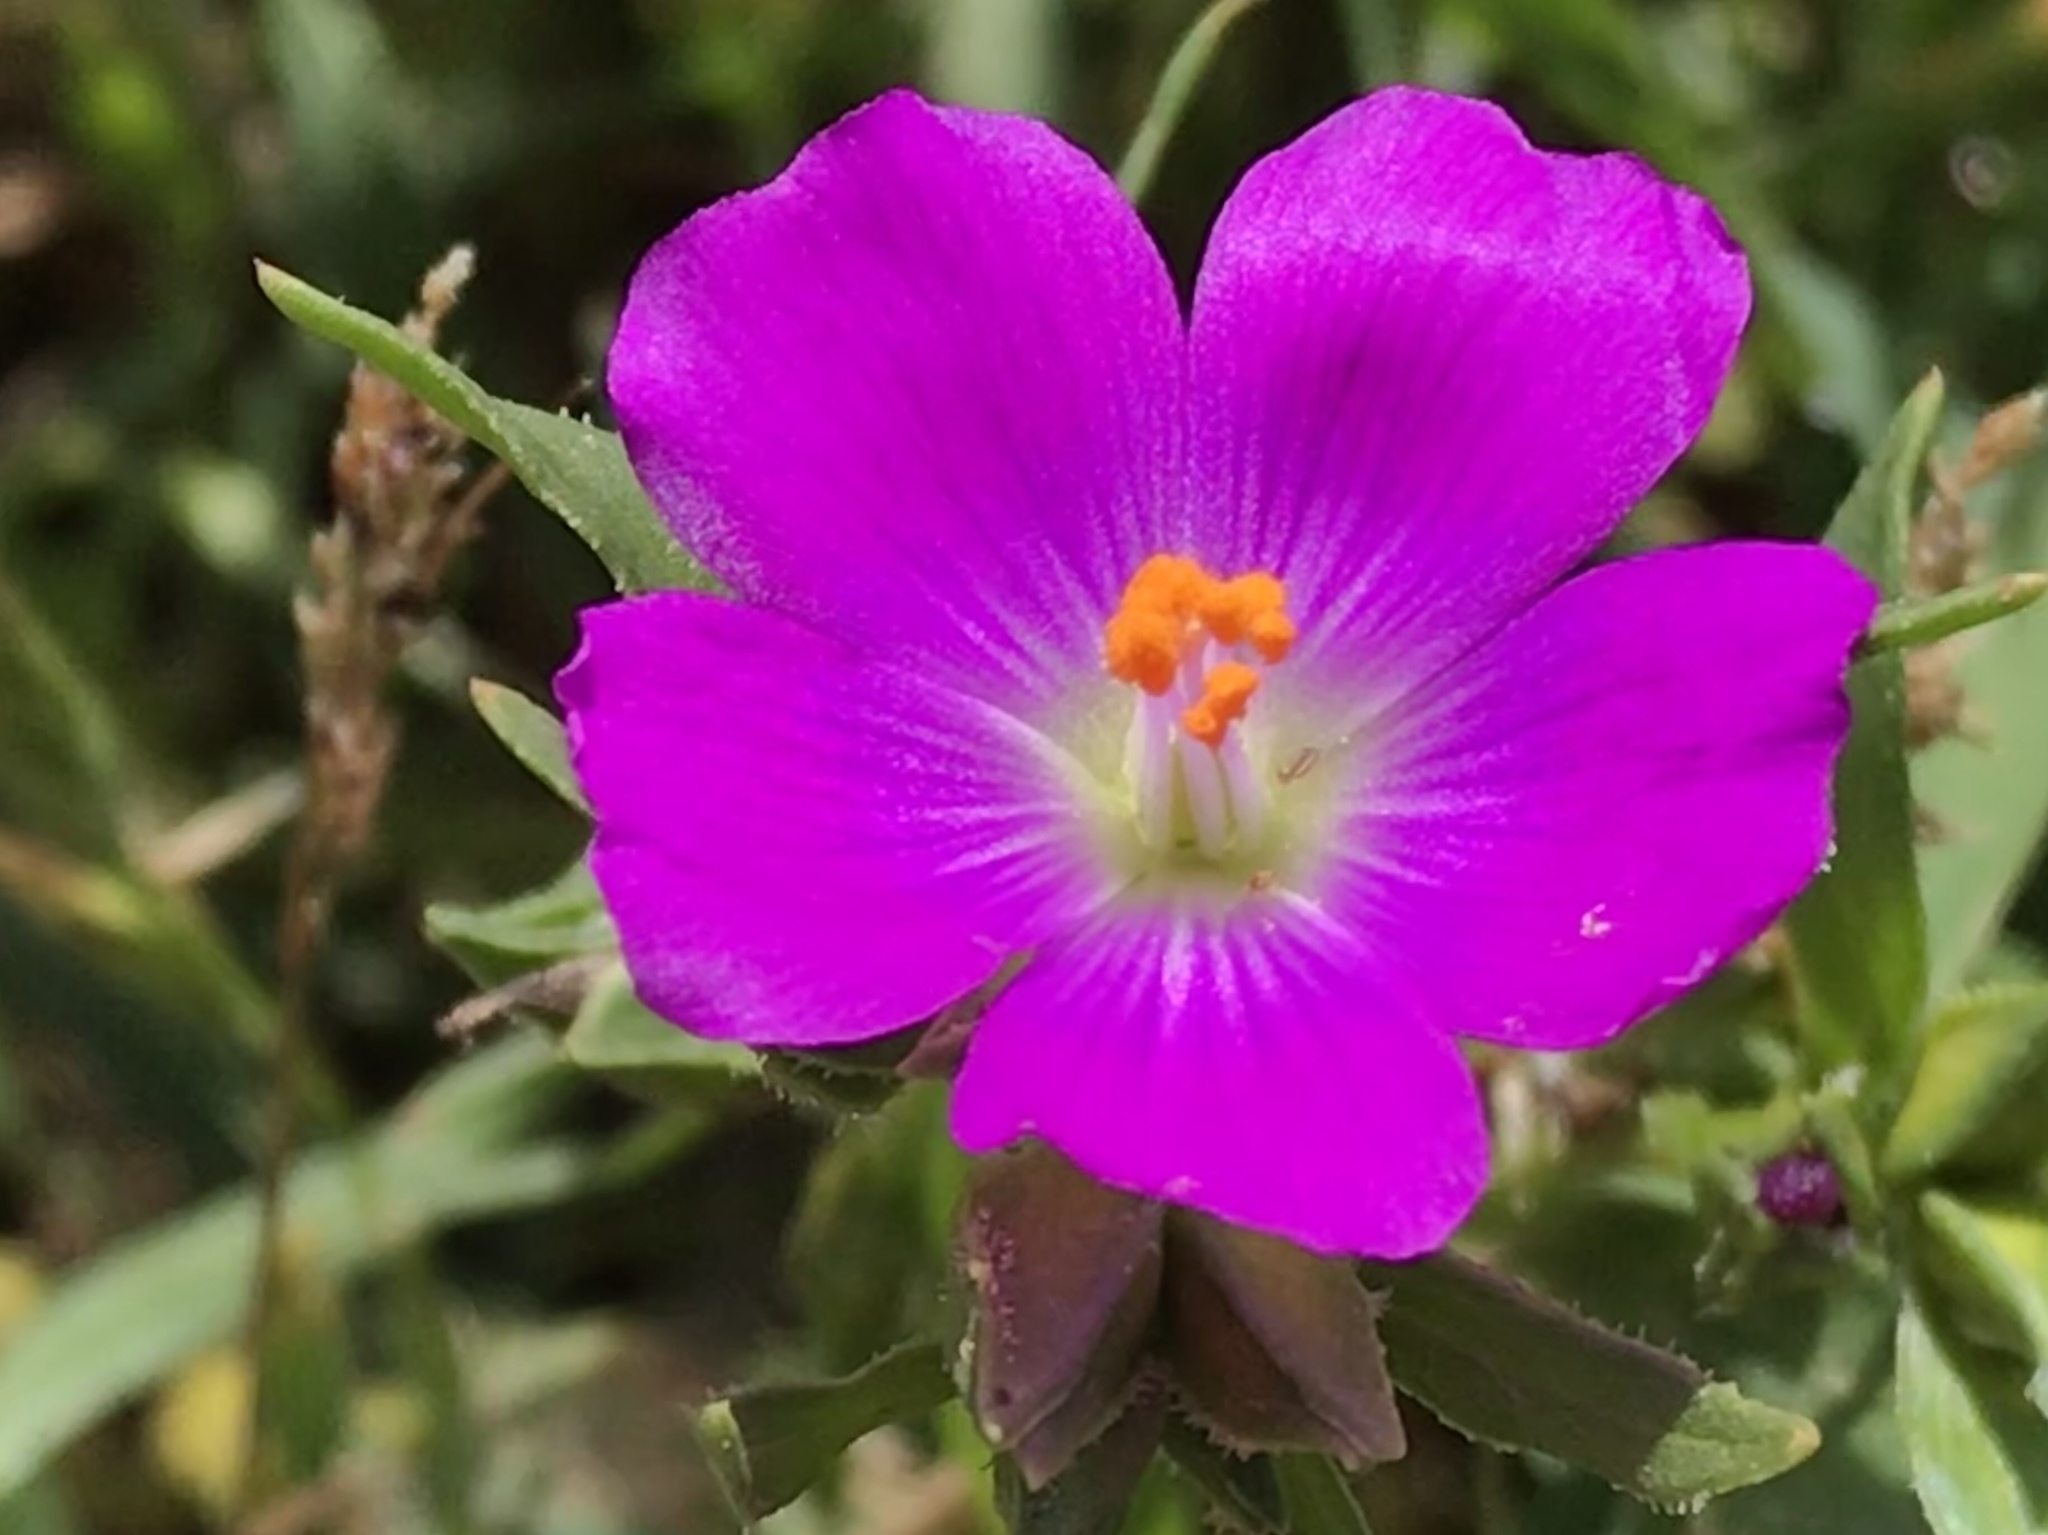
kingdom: Plantae
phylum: Tracheophyta
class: Magnoliopsida
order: Caryophyllales
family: Montiaceae
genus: Calandrinia
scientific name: Calandrinia menziesii
